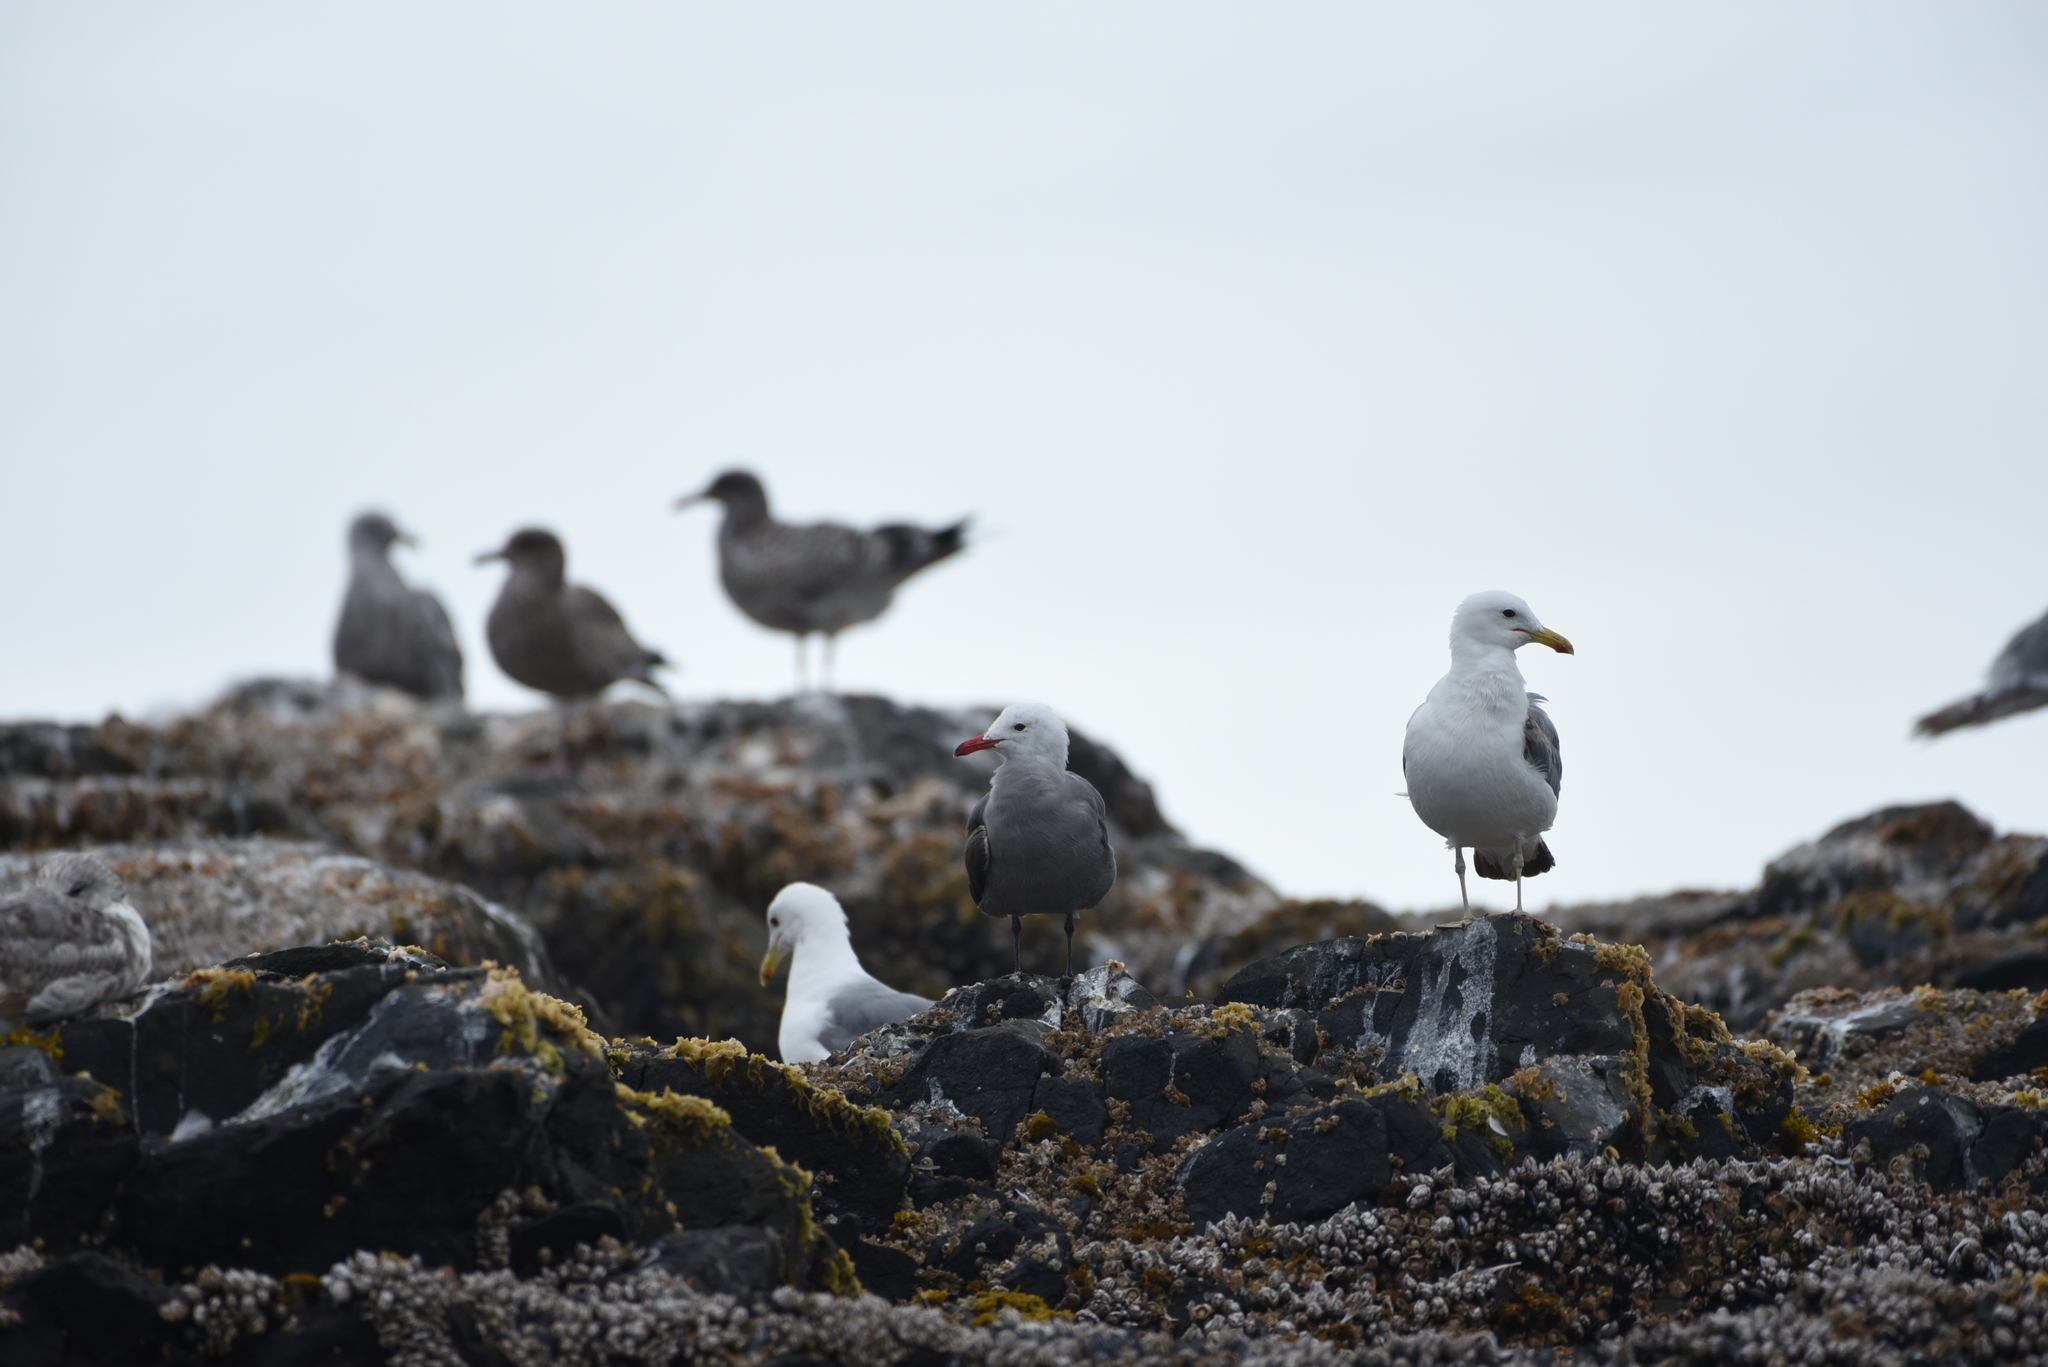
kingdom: Animalia
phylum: Chordata
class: Aves
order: Charadriiformes
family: Laridae
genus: Larus
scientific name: Larus heermanni
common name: Heermann's gull
